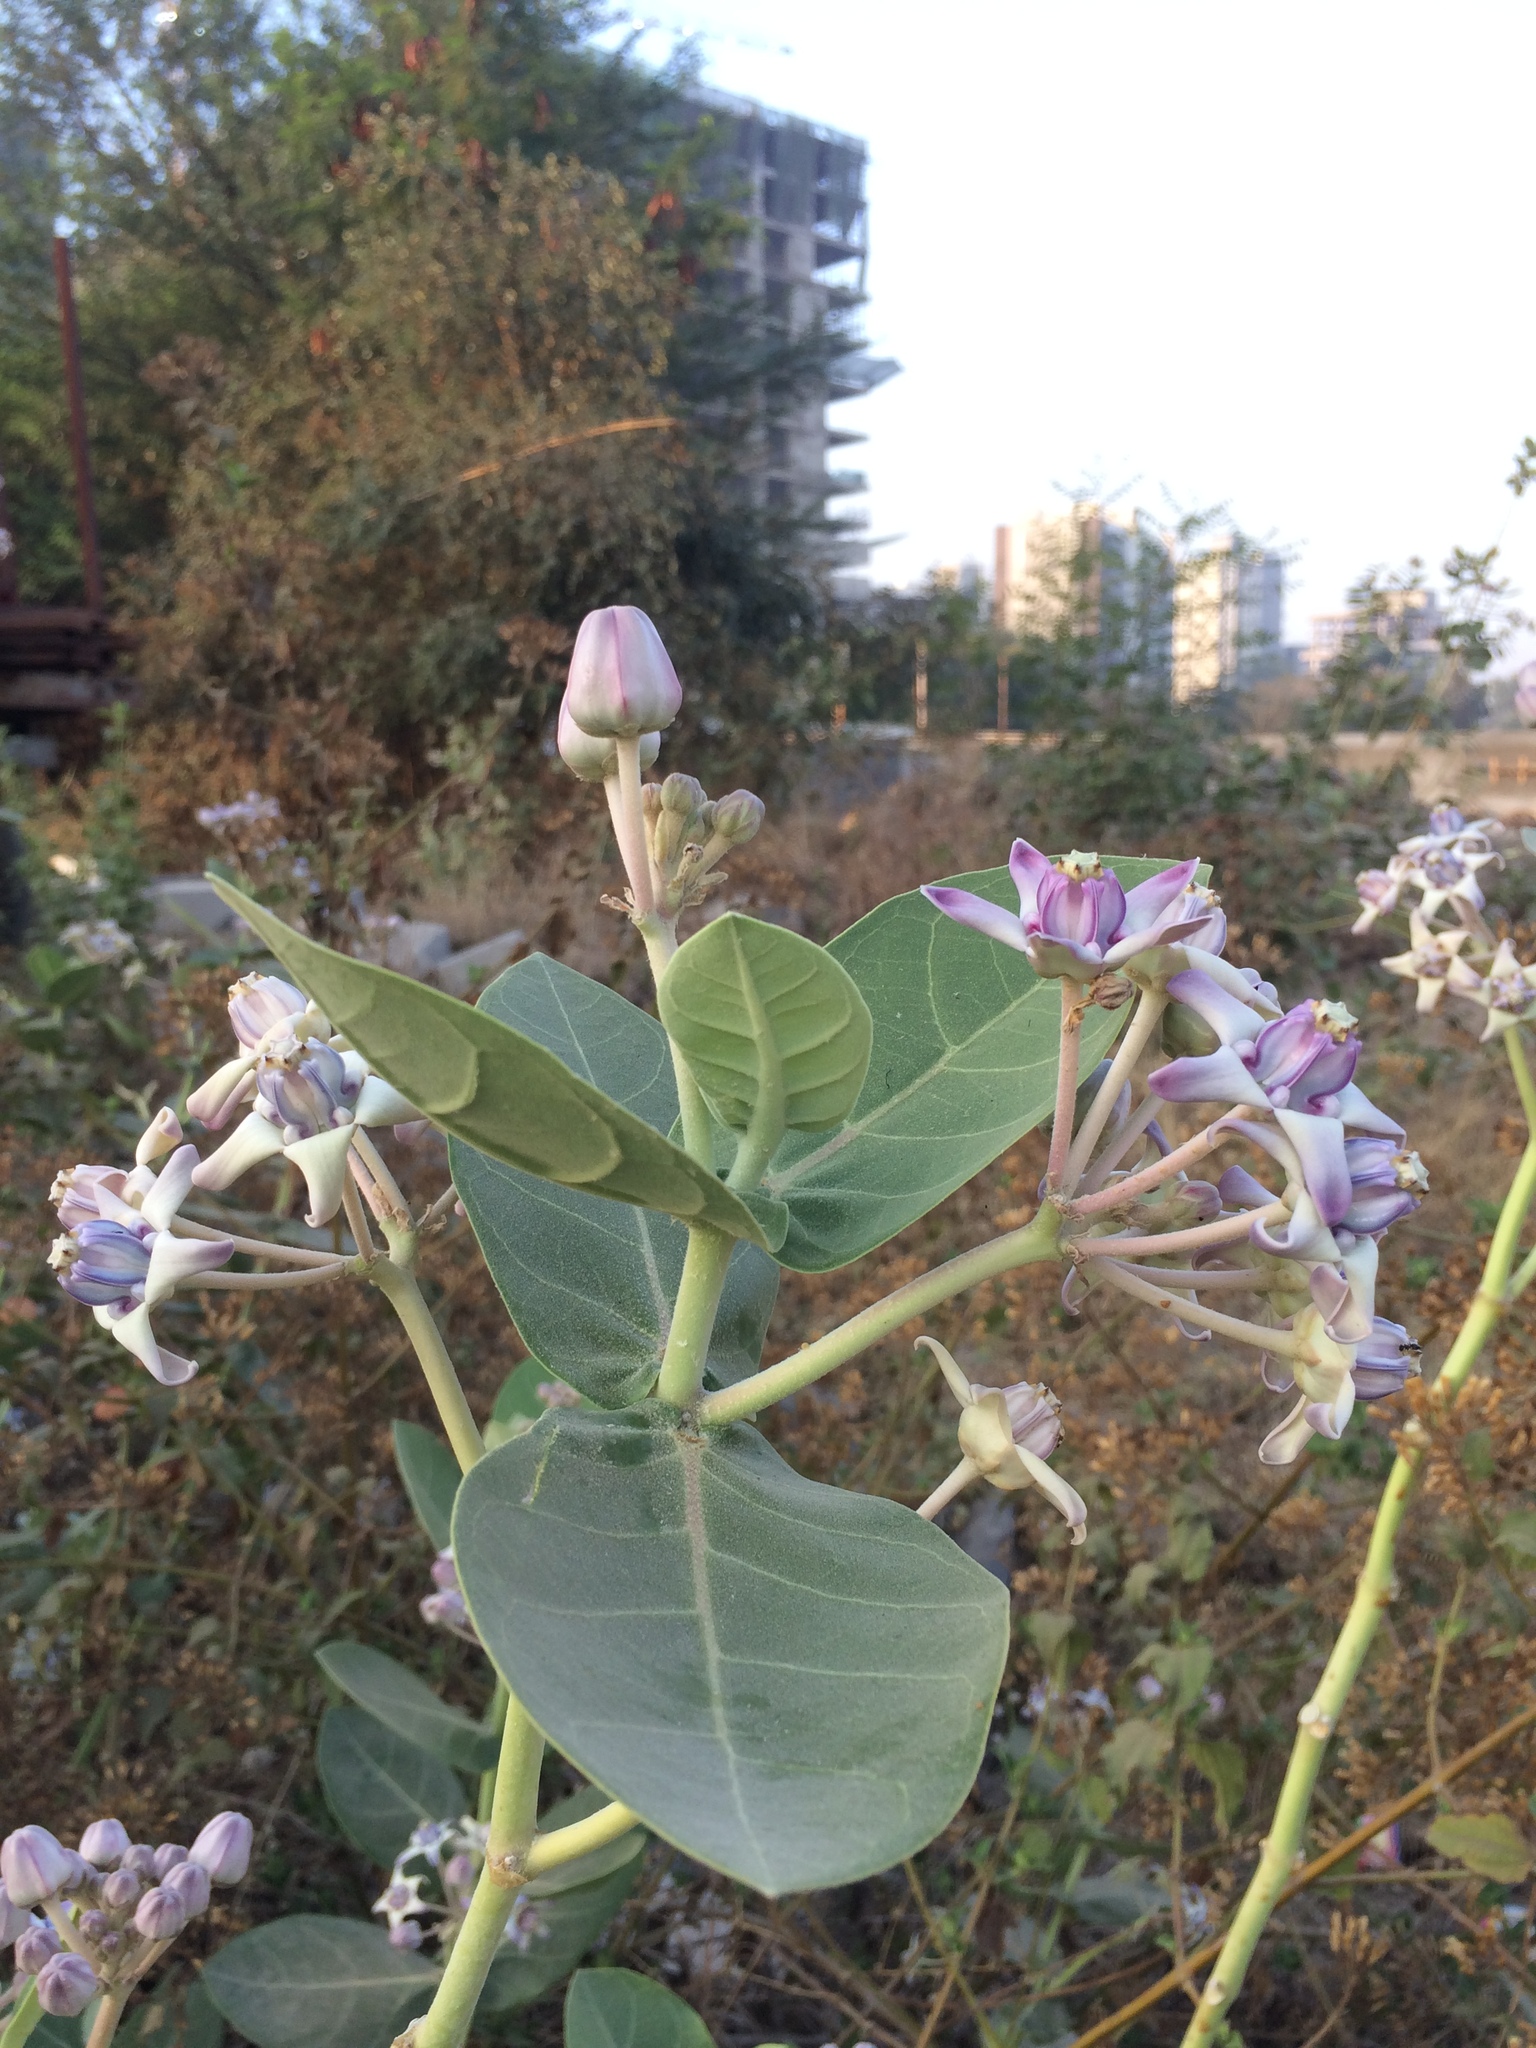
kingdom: Plantae
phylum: Tracheophyta
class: Magnoliopsida
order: Gentianales
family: Apocynaceae
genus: Calotropis
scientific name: Calotropis gigantea
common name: Crown flower
